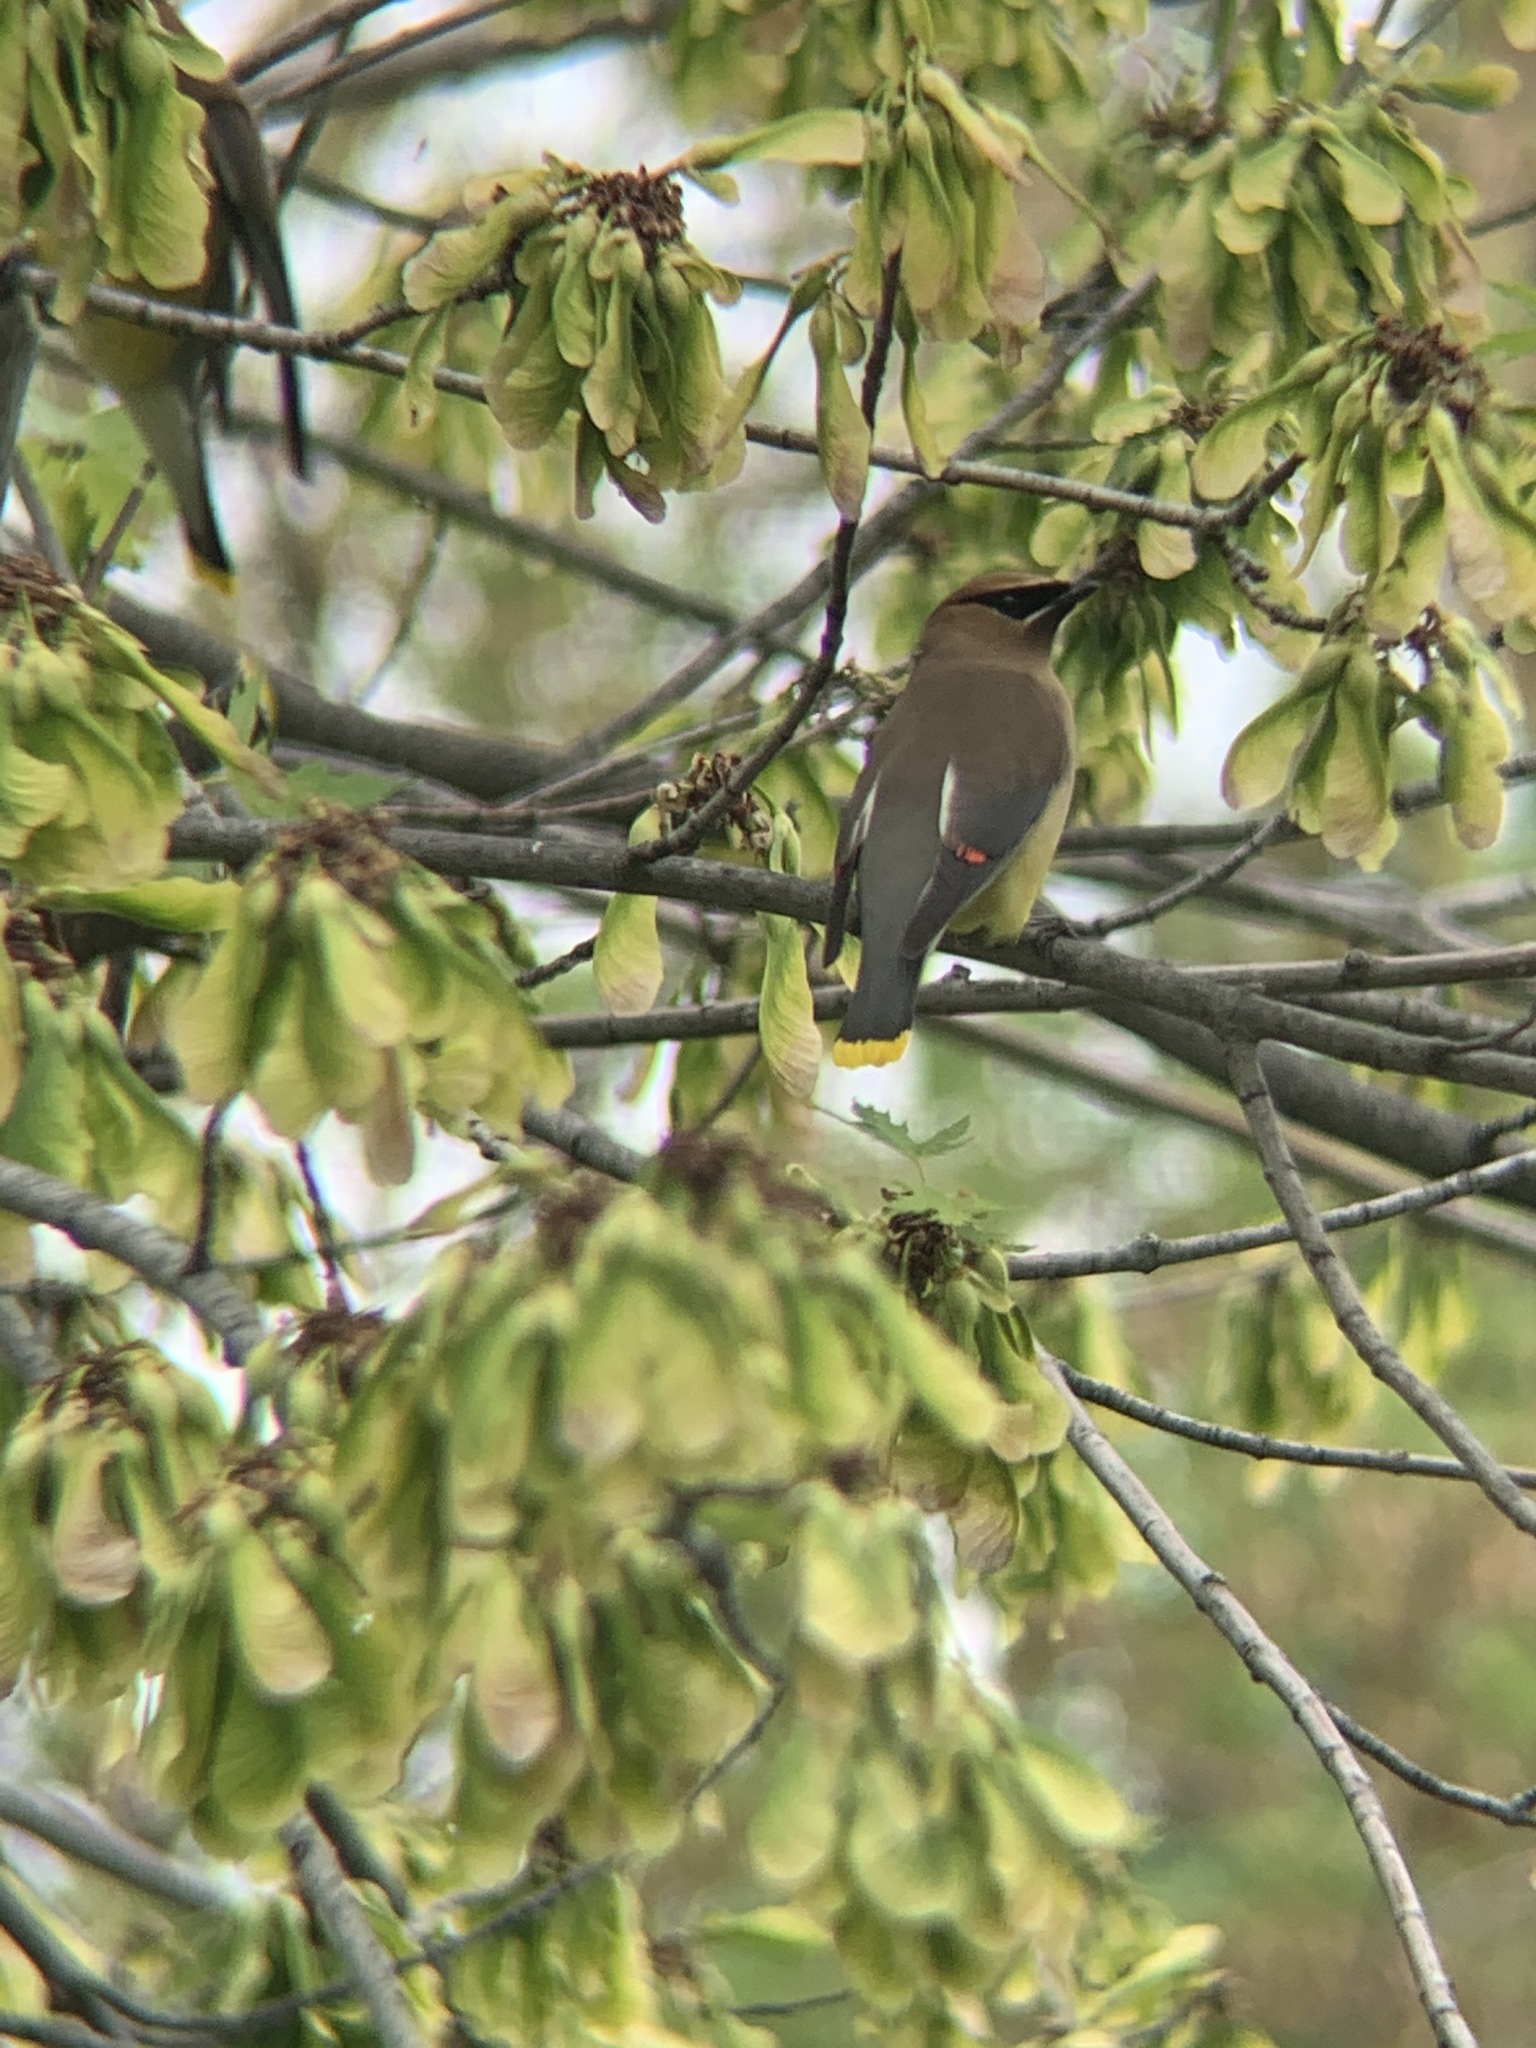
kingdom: Animalia
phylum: Chordata
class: Aves
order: Passeriformes
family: Bombycillidae
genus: Bombycilla
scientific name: Bombycilla cedrorum
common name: Cedar waxwing
